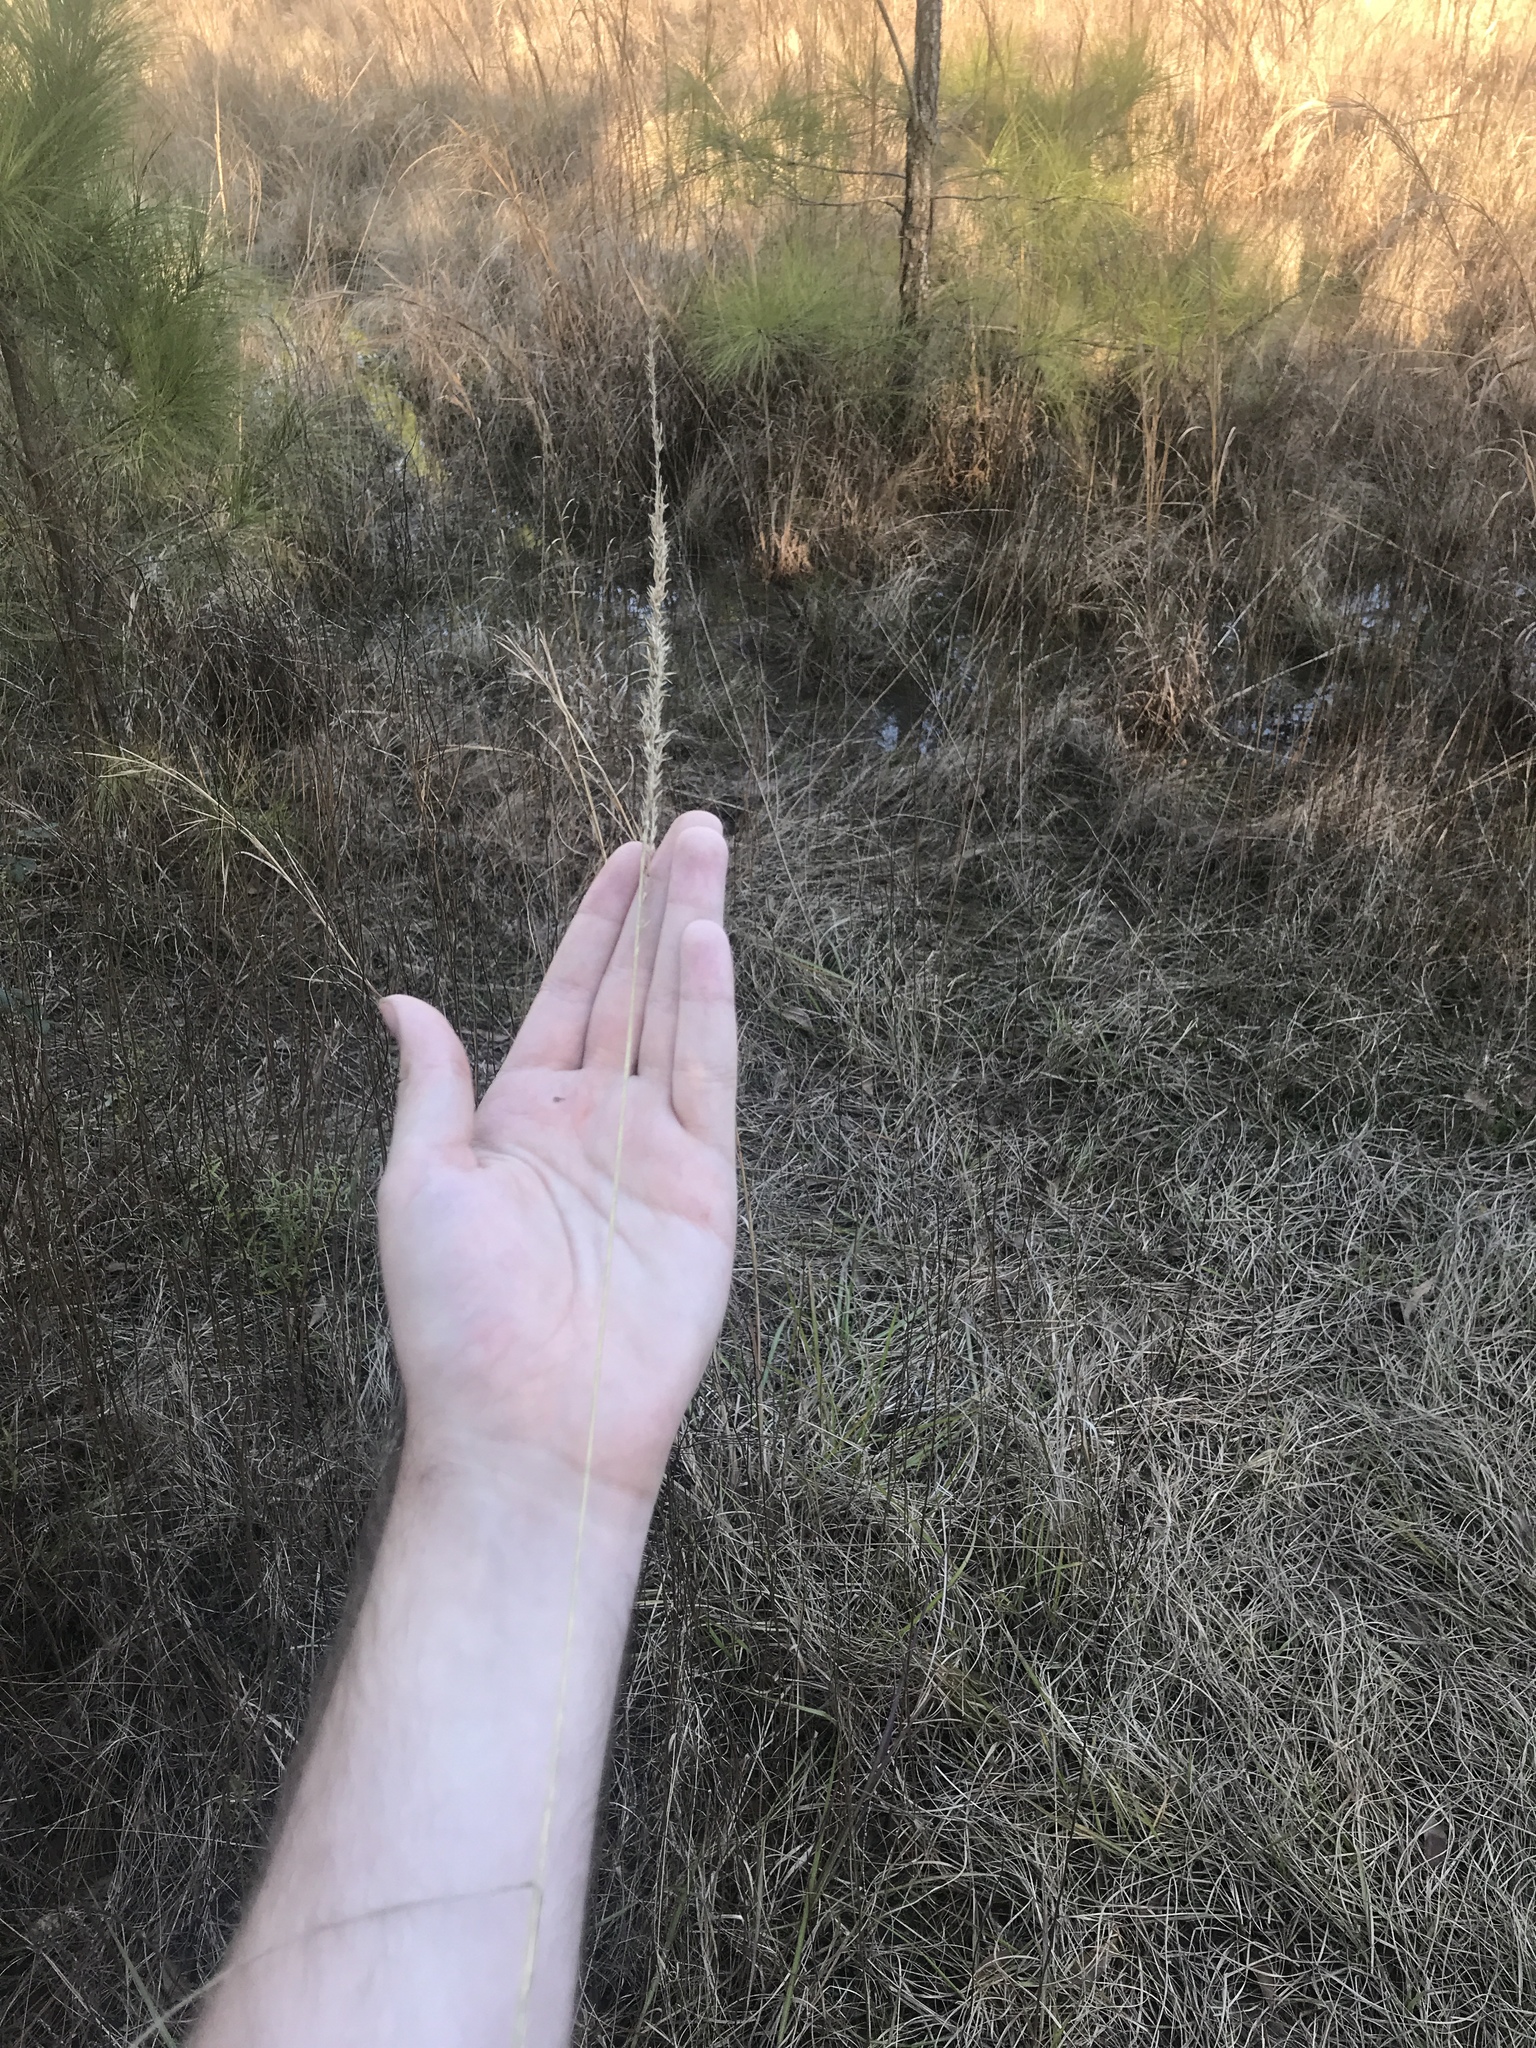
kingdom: Plantae
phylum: Tracheophyta
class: Liliopsida
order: Poales
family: Poaceae
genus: Tridens
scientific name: Tridens strictus
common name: Long-spike tridens
